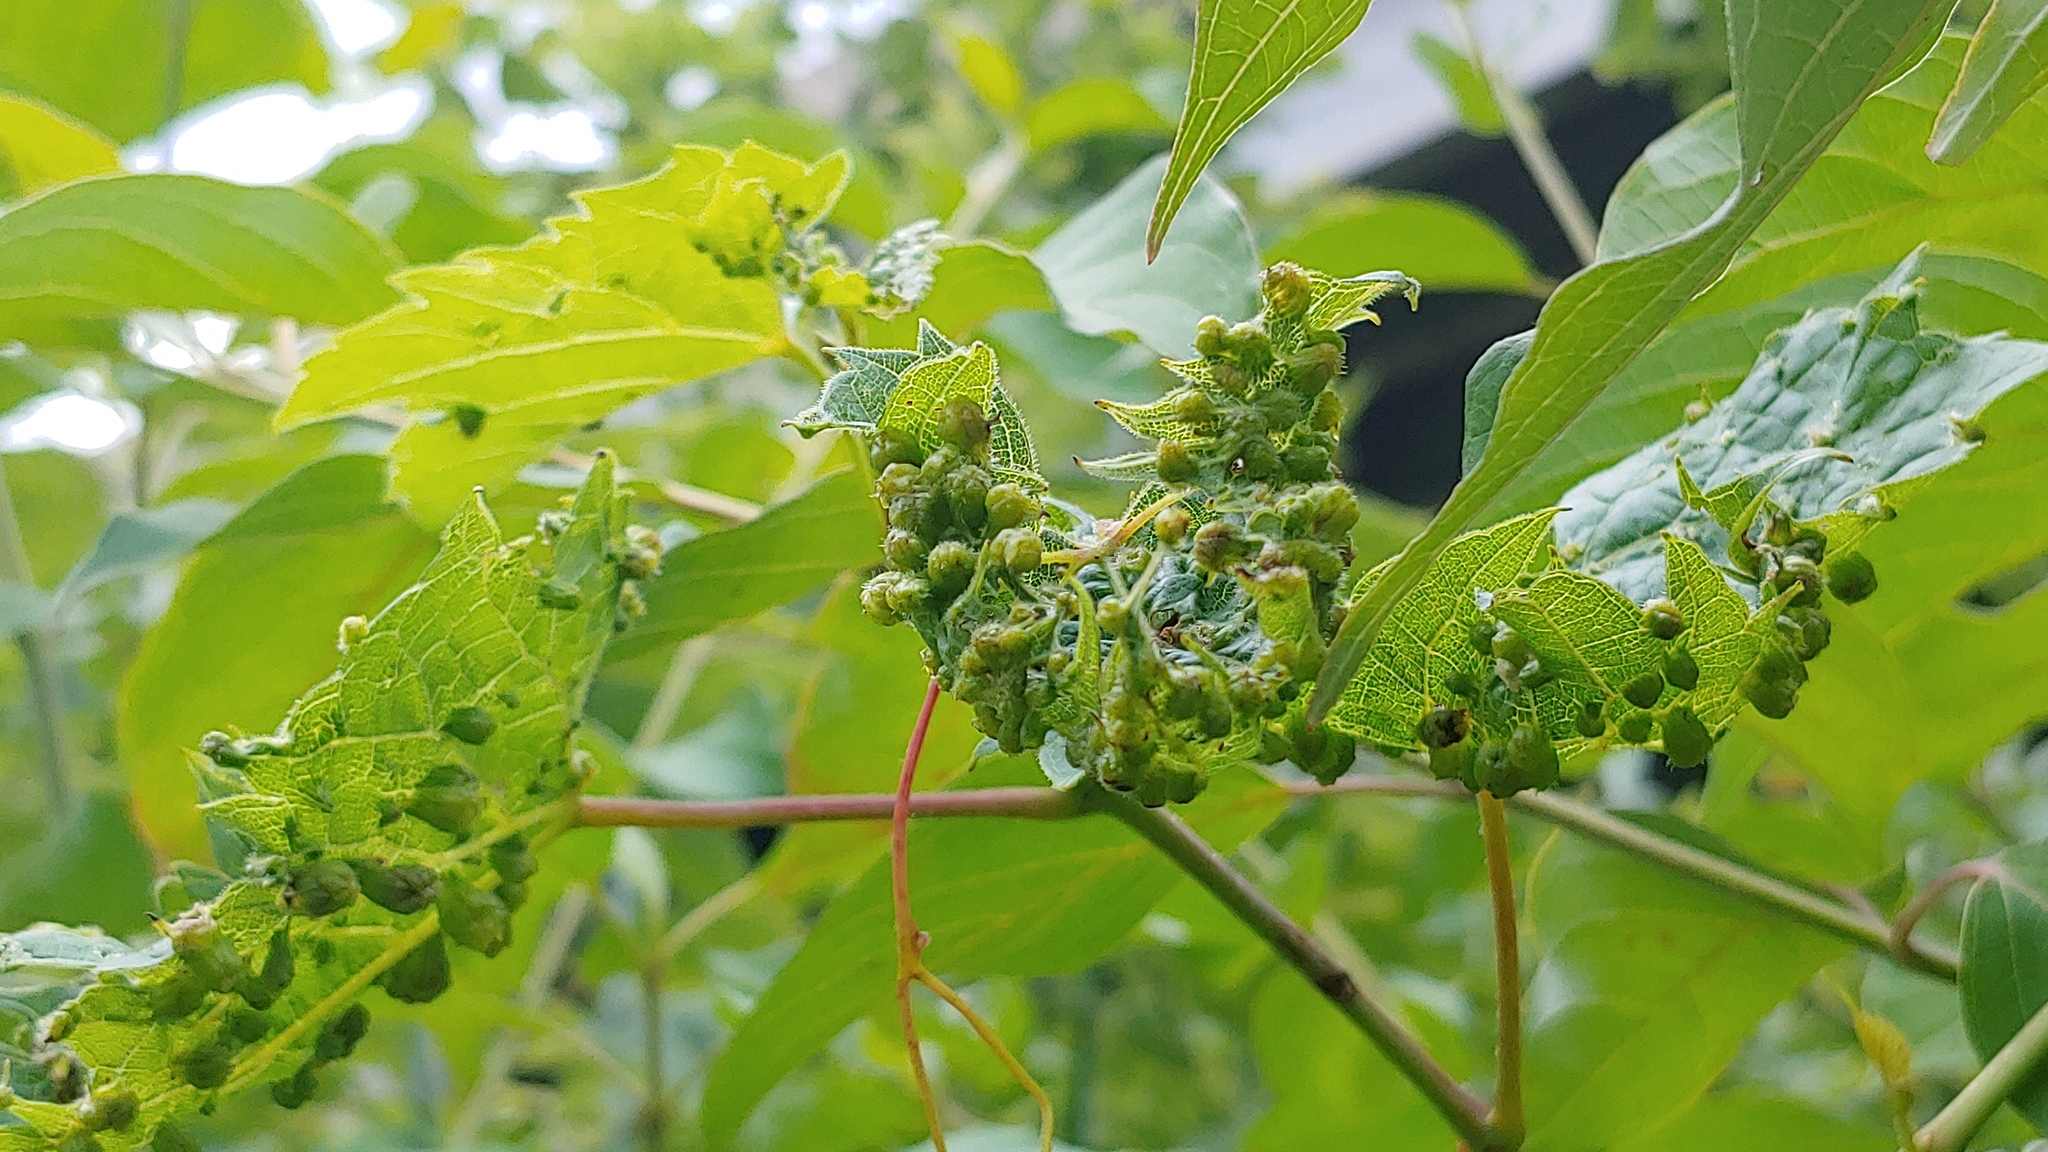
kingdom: Animalia
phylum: Arthropoda
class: Insecta
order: Hemiptera
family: Phylloxeridae
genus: Daktulosphaira
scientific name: Daktulosphaira vitifoliae
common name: Grape phylloxera
